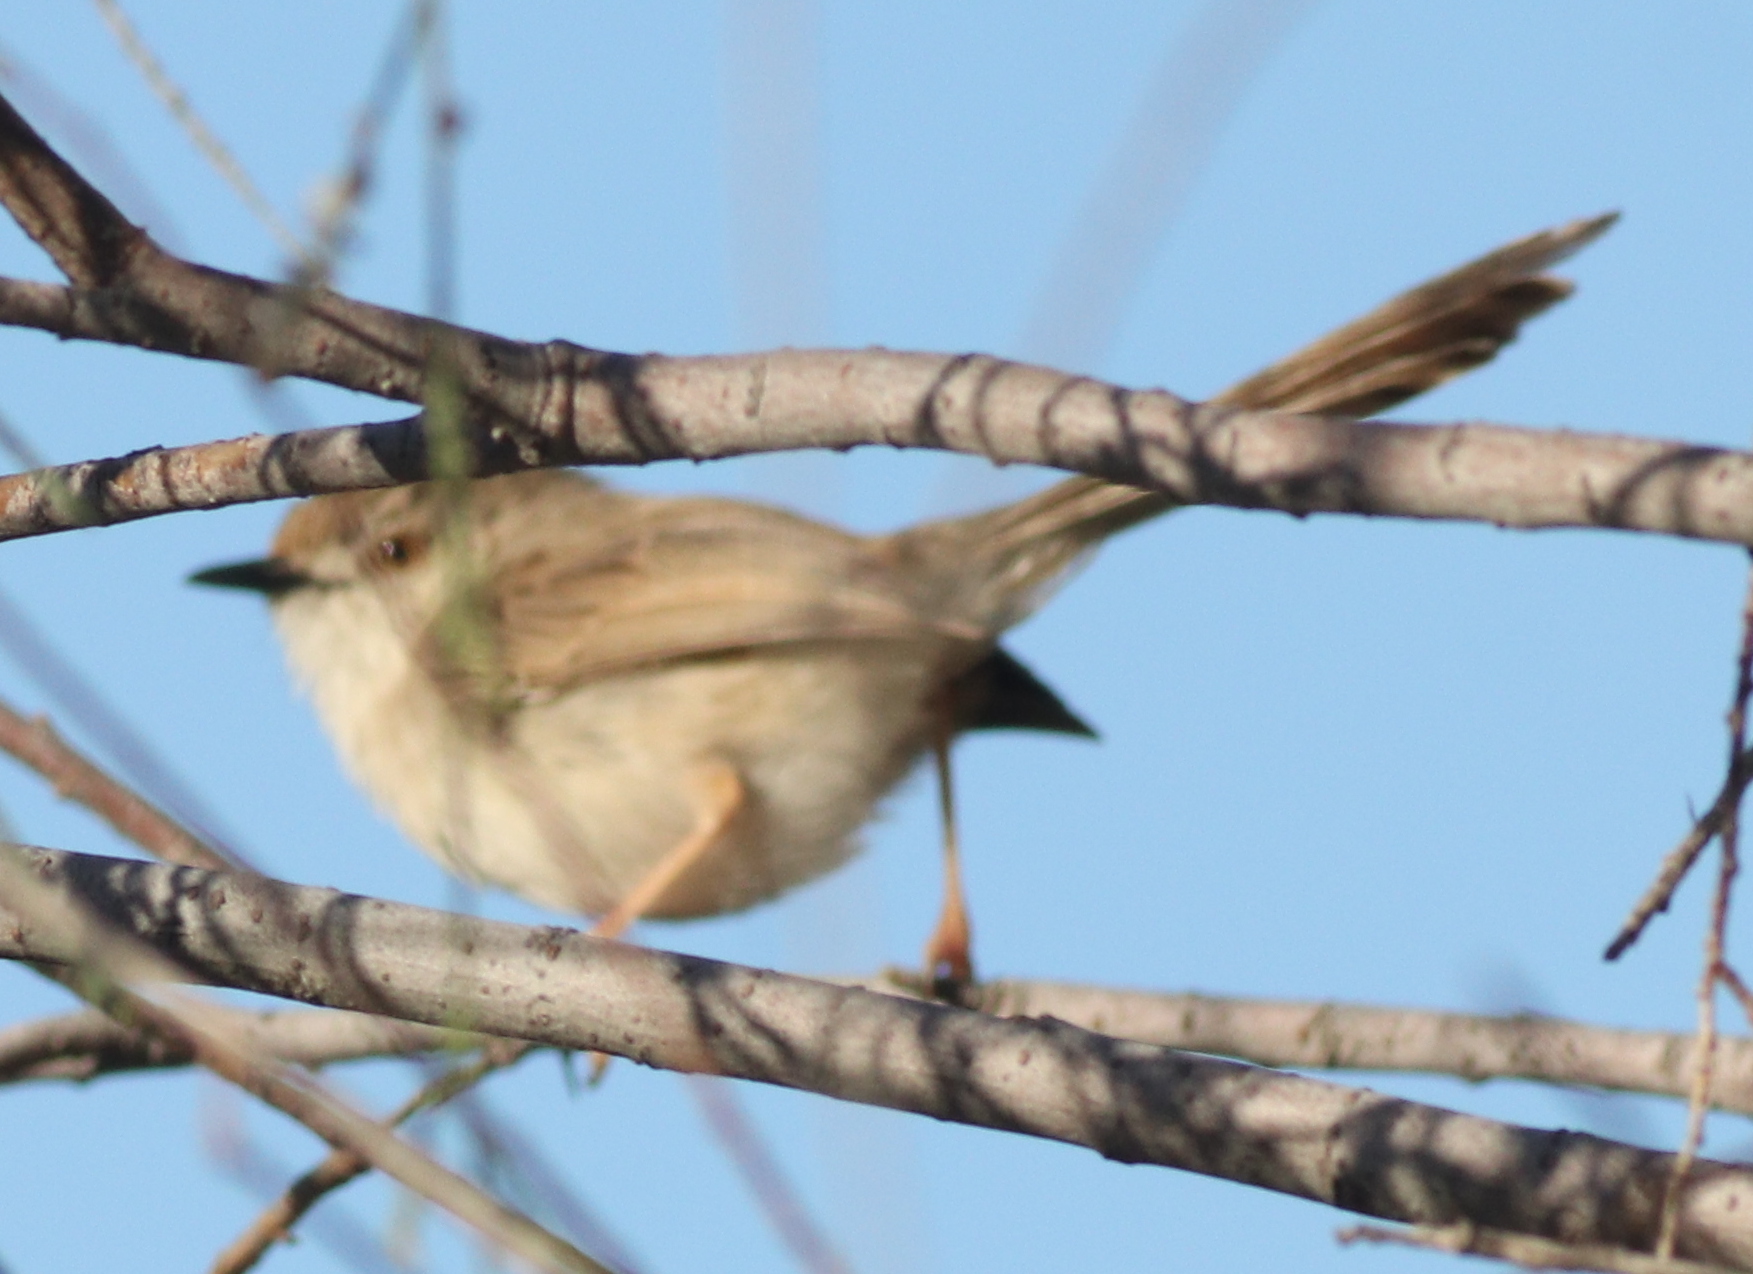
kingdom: Animalia
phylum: Chordata
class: Aves
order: Passeriformes
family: Cisticolidae
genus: Prinia
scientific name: Prinia lepida
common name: Delicate prinia
